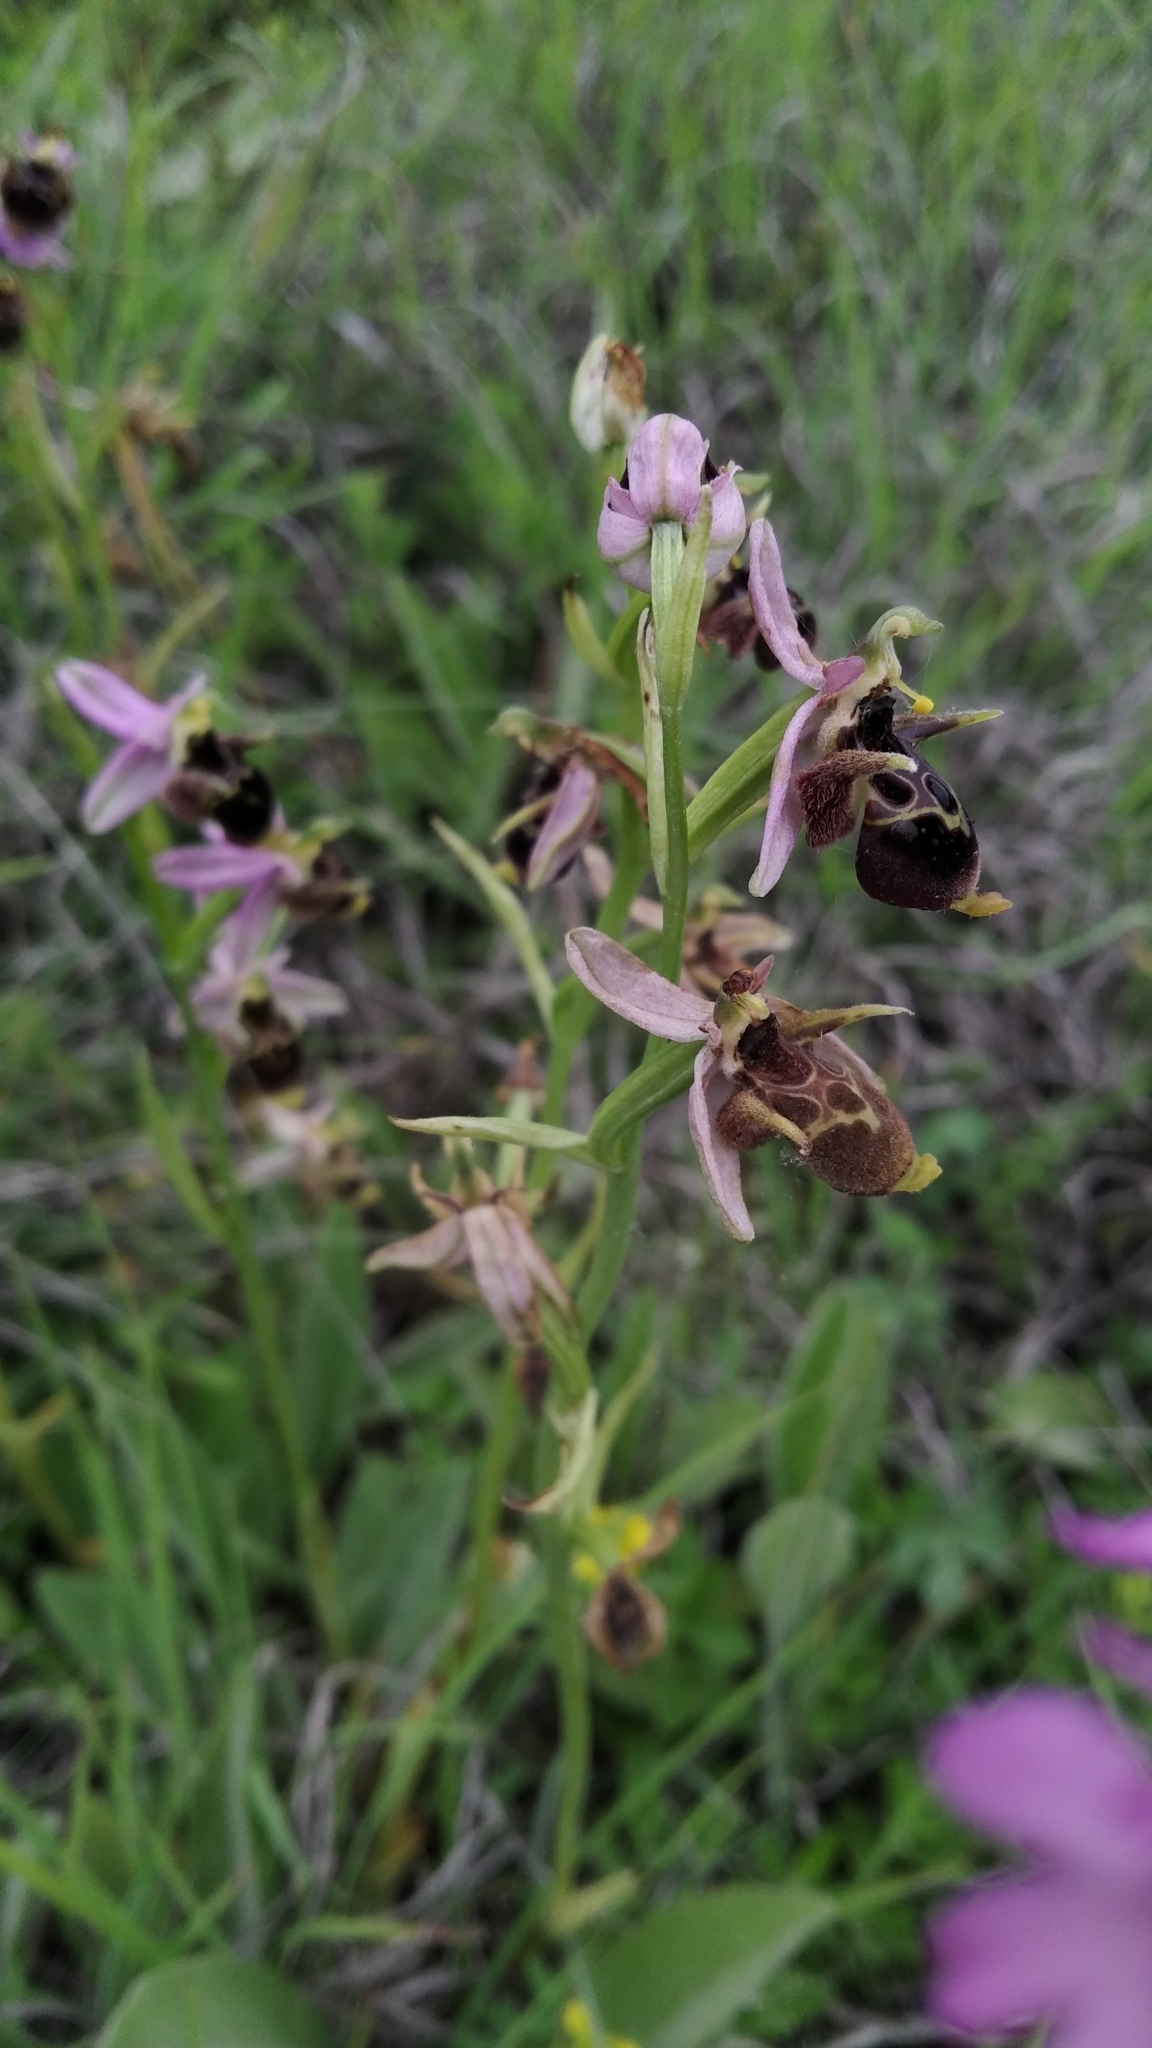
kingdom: Plantae
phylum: Tracheophyta
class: Liliopsida
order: Asparagales
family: Orchidaceae
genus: Ophrys
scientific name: Ophrys
